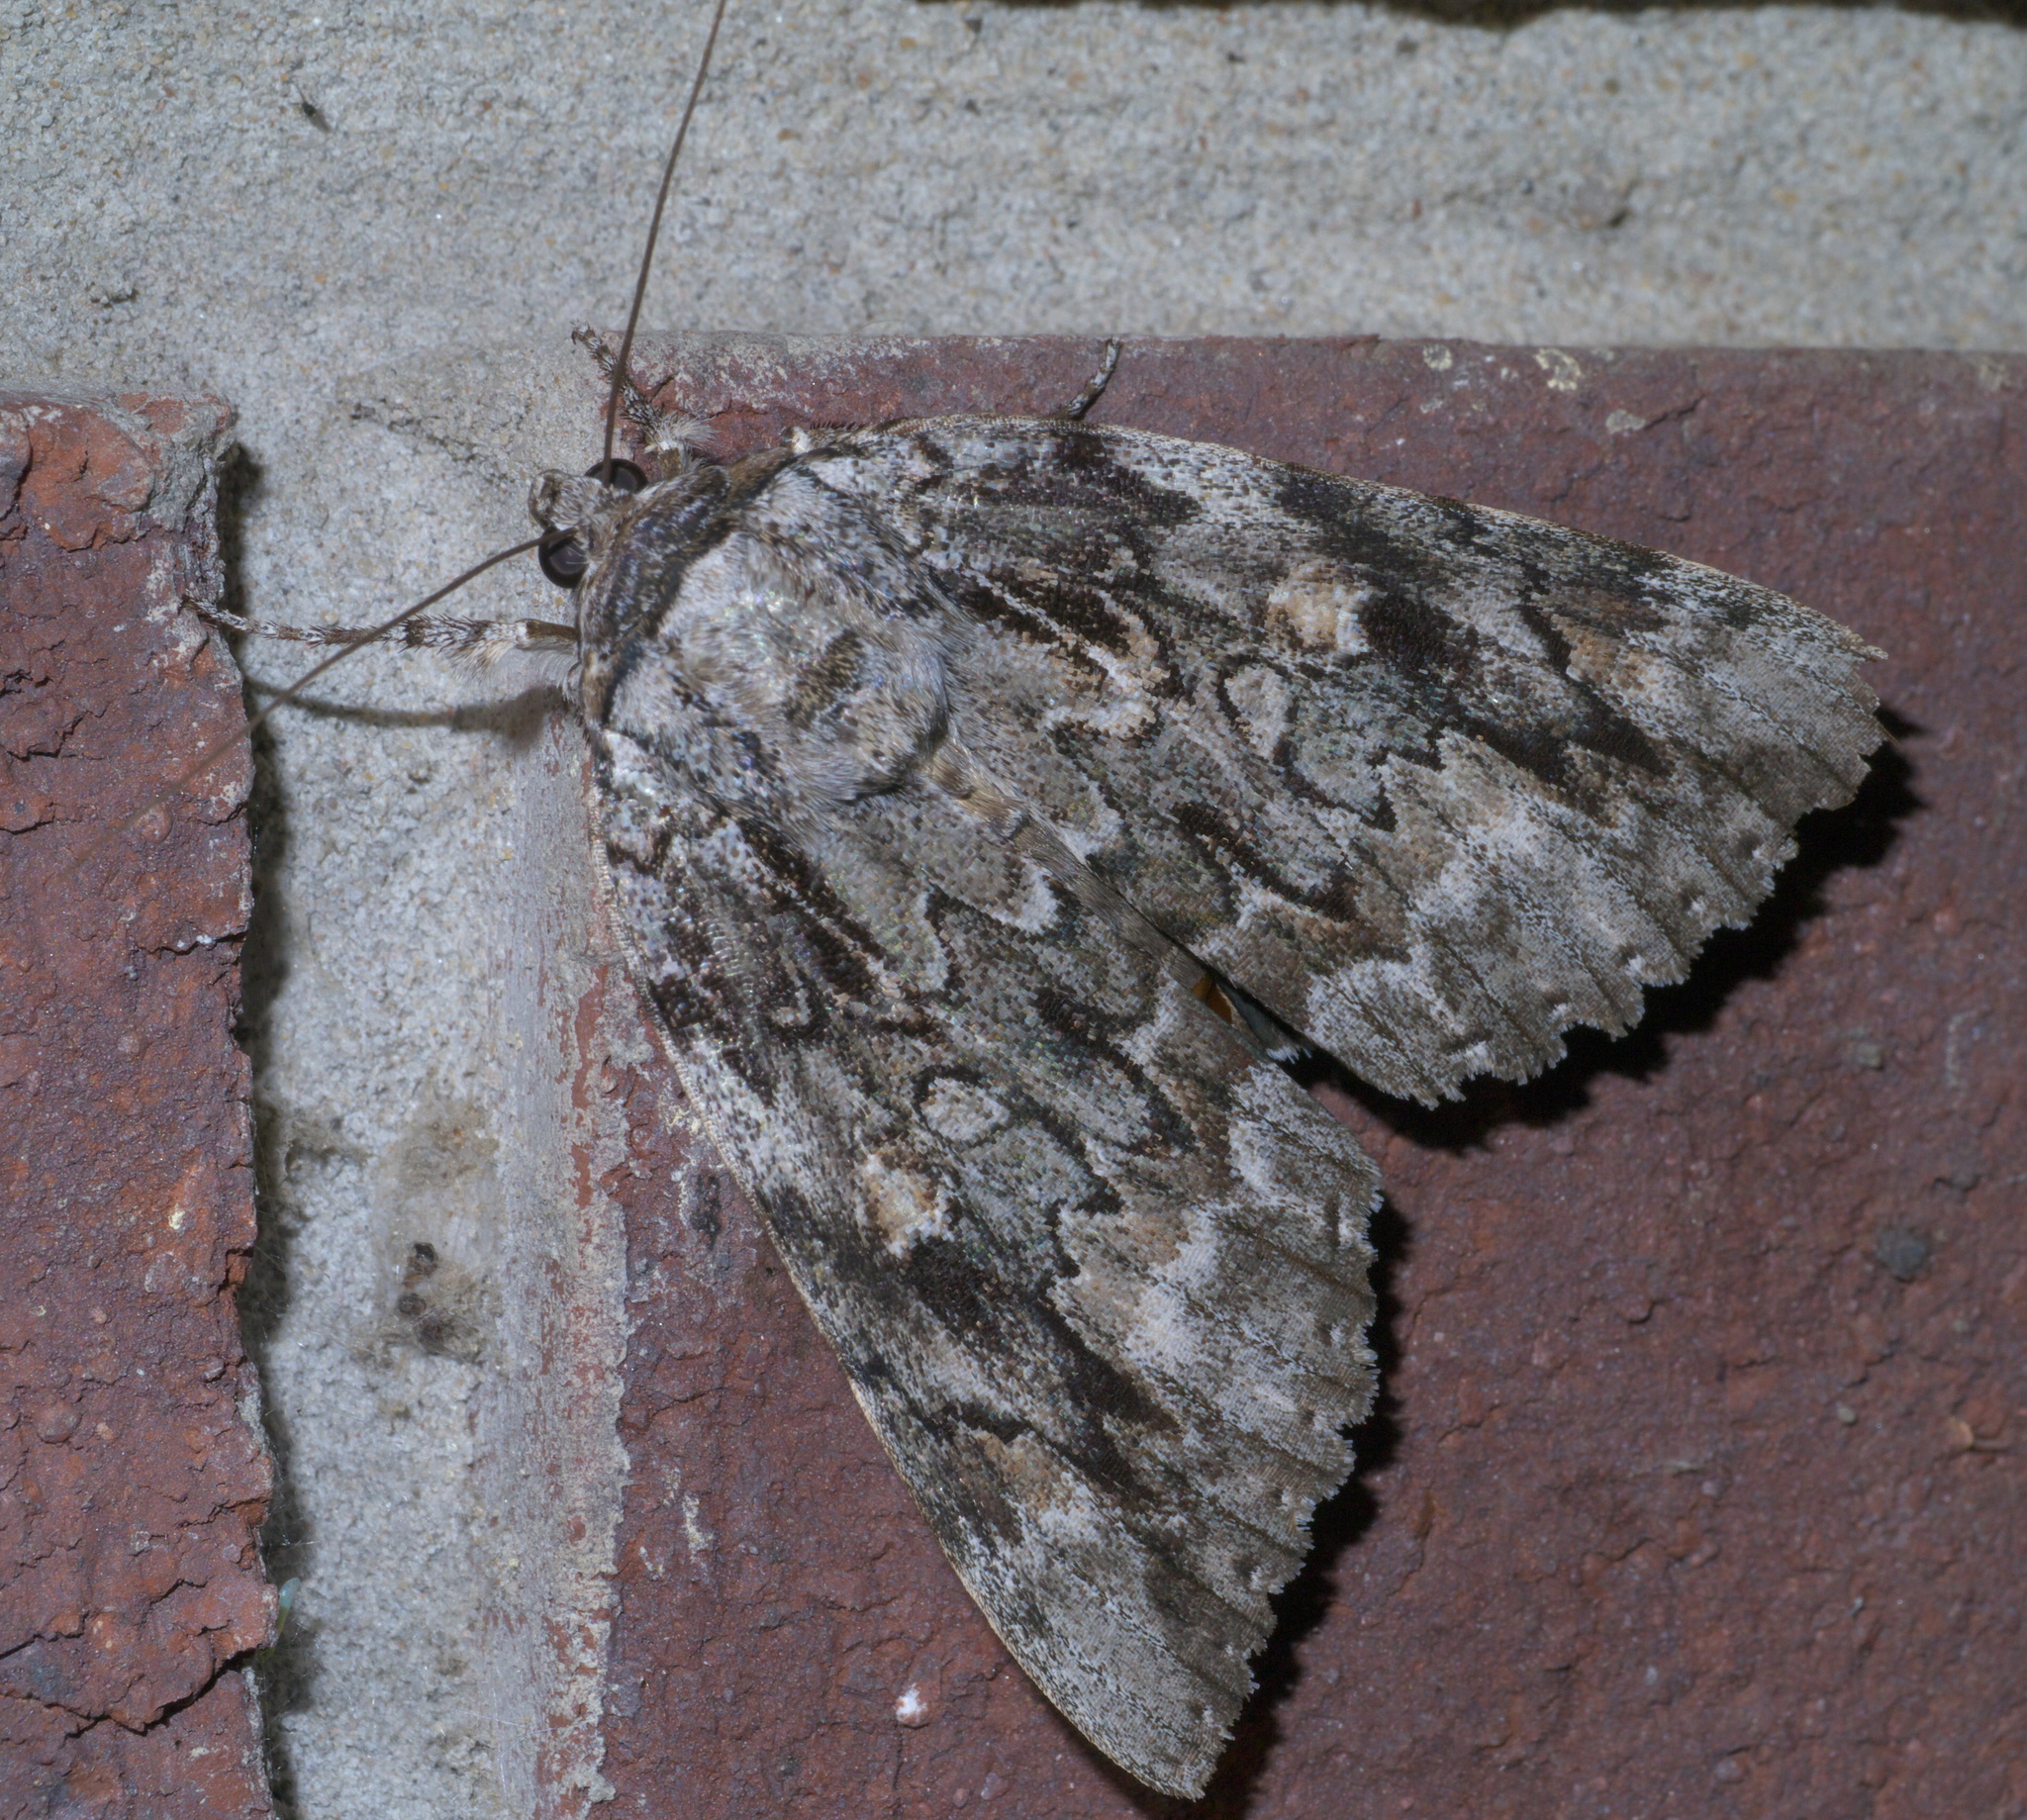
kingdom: Animalia
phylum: Arthropoda
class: Insecta
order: Lepidoptera
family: Erebidae
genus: Catocala
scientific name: Catocala maestosa
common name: Sad underwing
